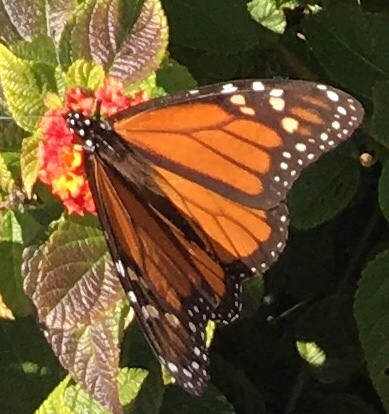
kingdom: Animalia
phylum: Arthropoda
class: Insecta
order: Lepidoptera
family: Nymphalidae
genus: Danaus
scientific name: Danaus plexippus
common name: Monarch
